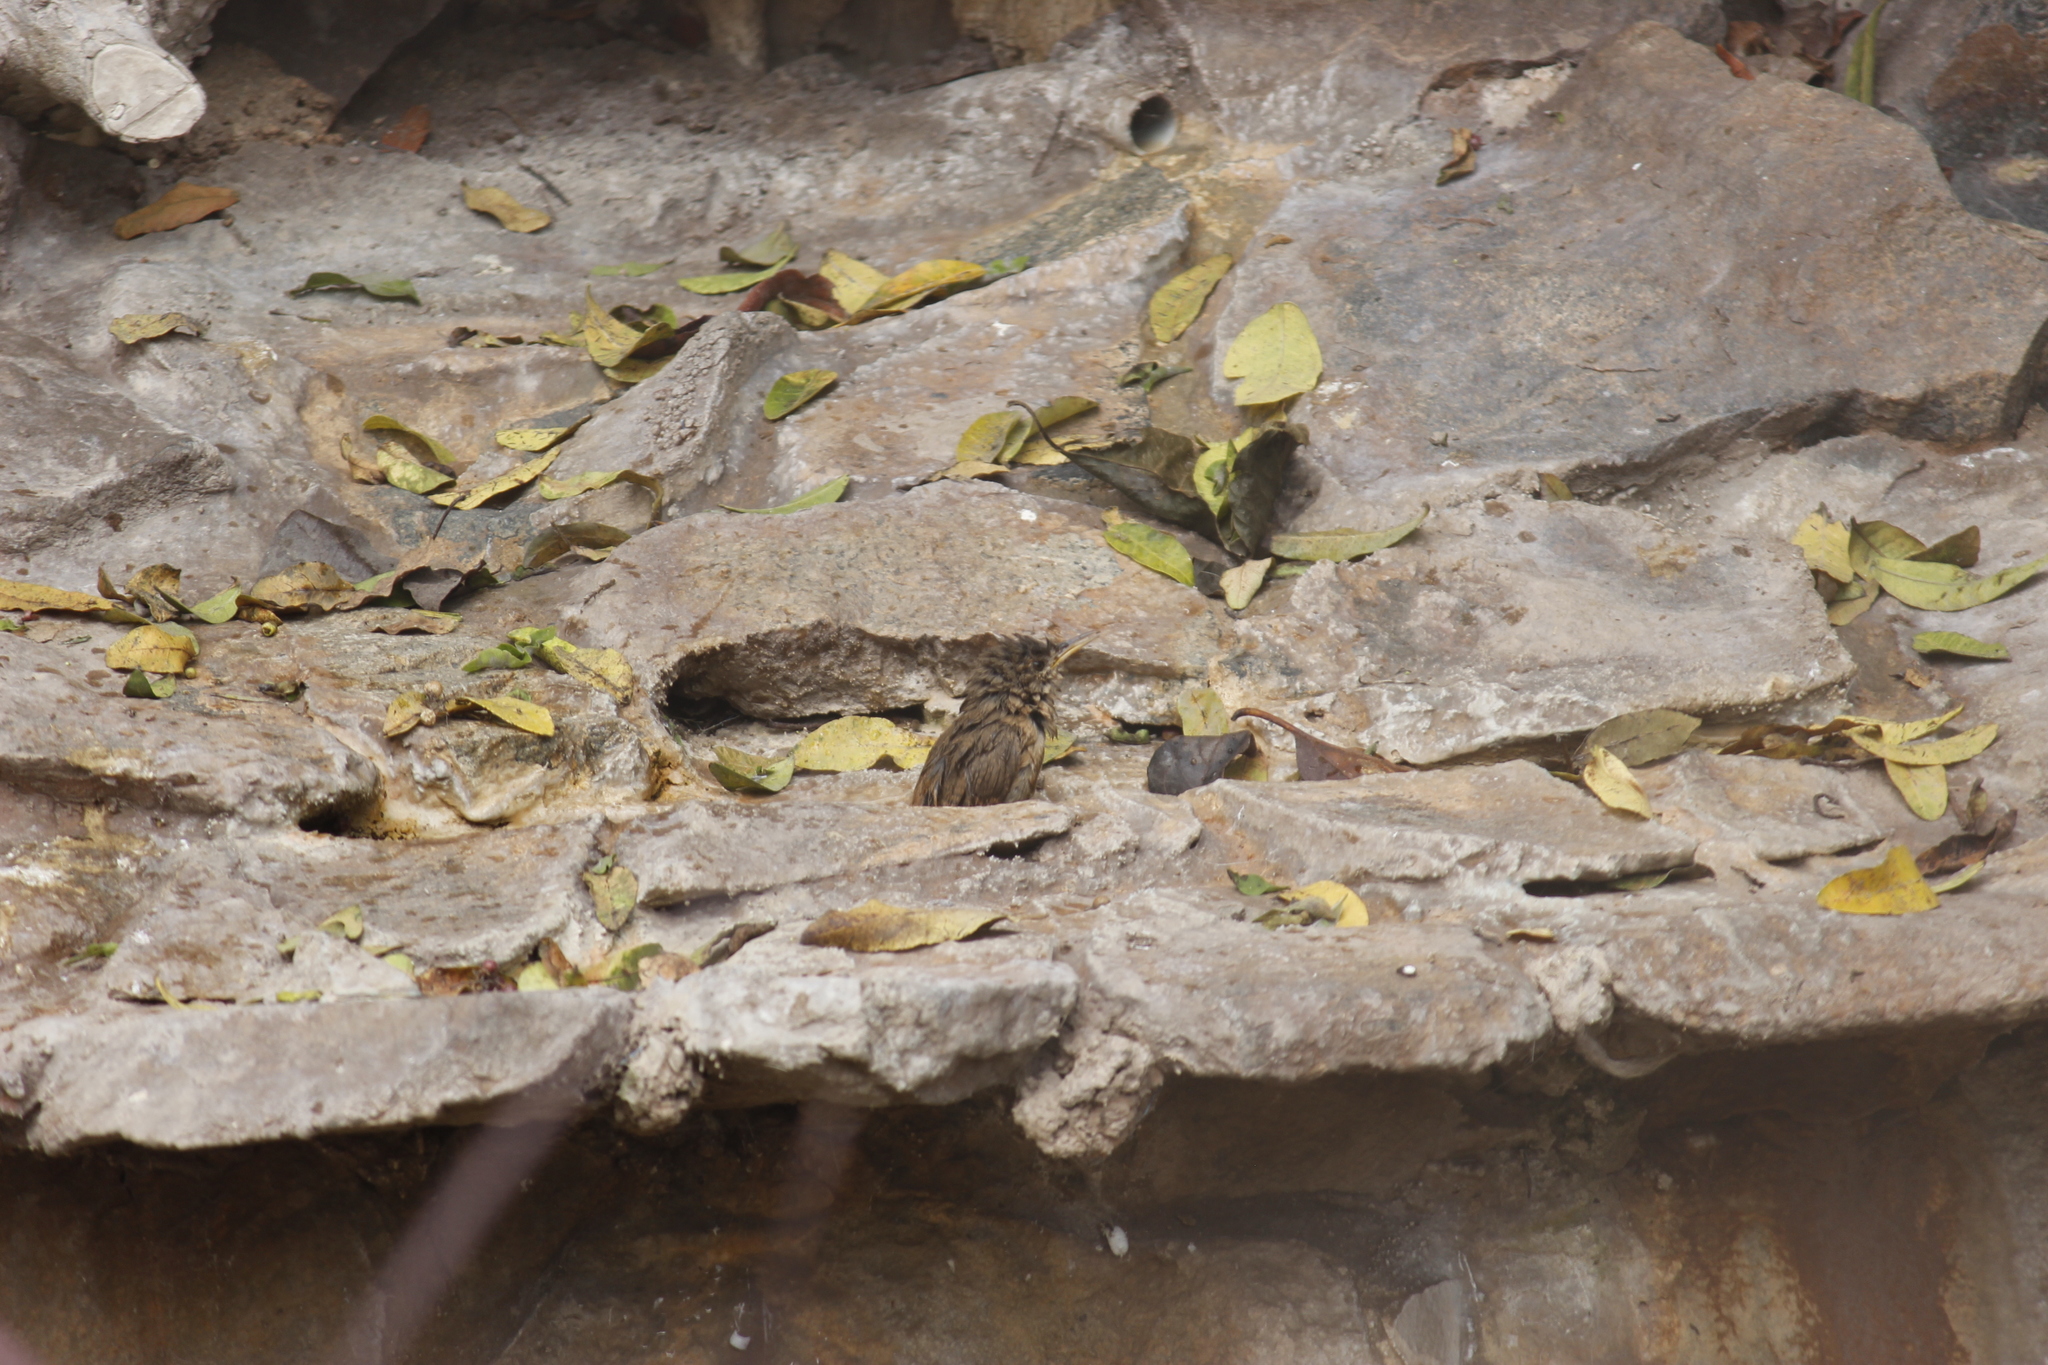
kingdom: Animalia
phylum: Chordata
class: Aves
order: Passeriformes
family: Troglodytidae
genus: Troglodytes
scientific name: Troglodytes aedon
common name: House wren
